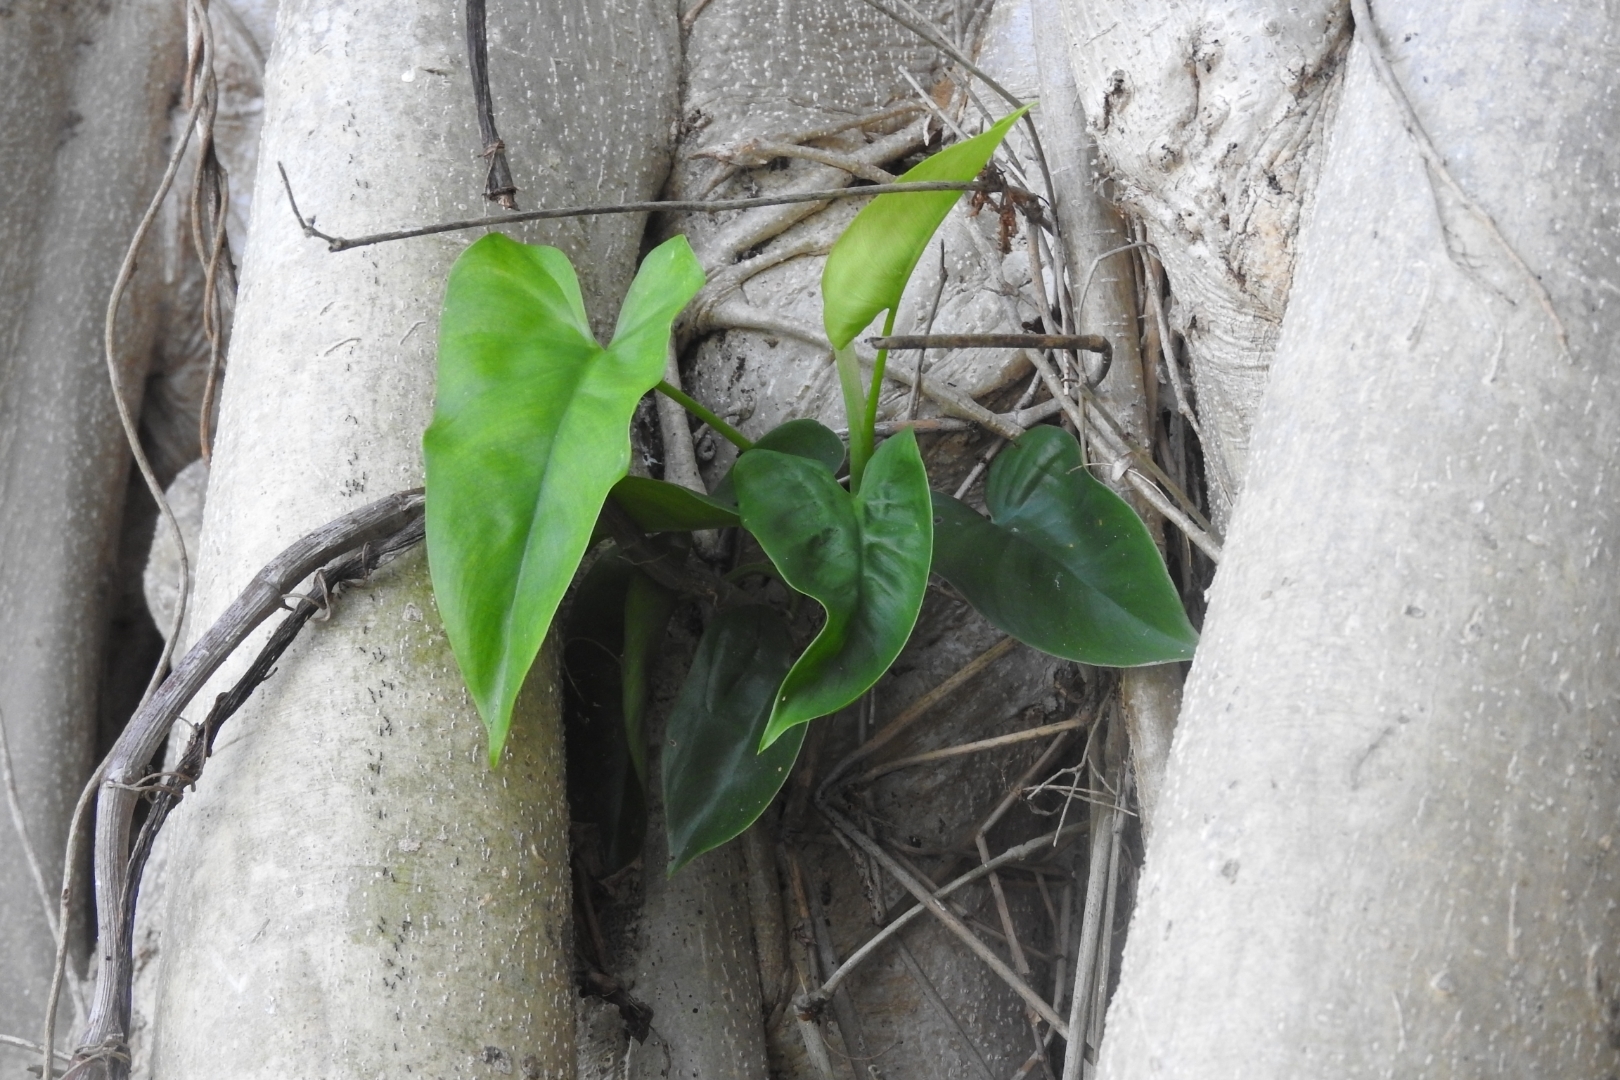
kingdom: Plantae
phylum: Tracheophyta
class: Liliopsida
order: Alismatales
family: Araceae
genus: Philodendron
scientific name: Philodendron hederaceum
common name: Vilevine
